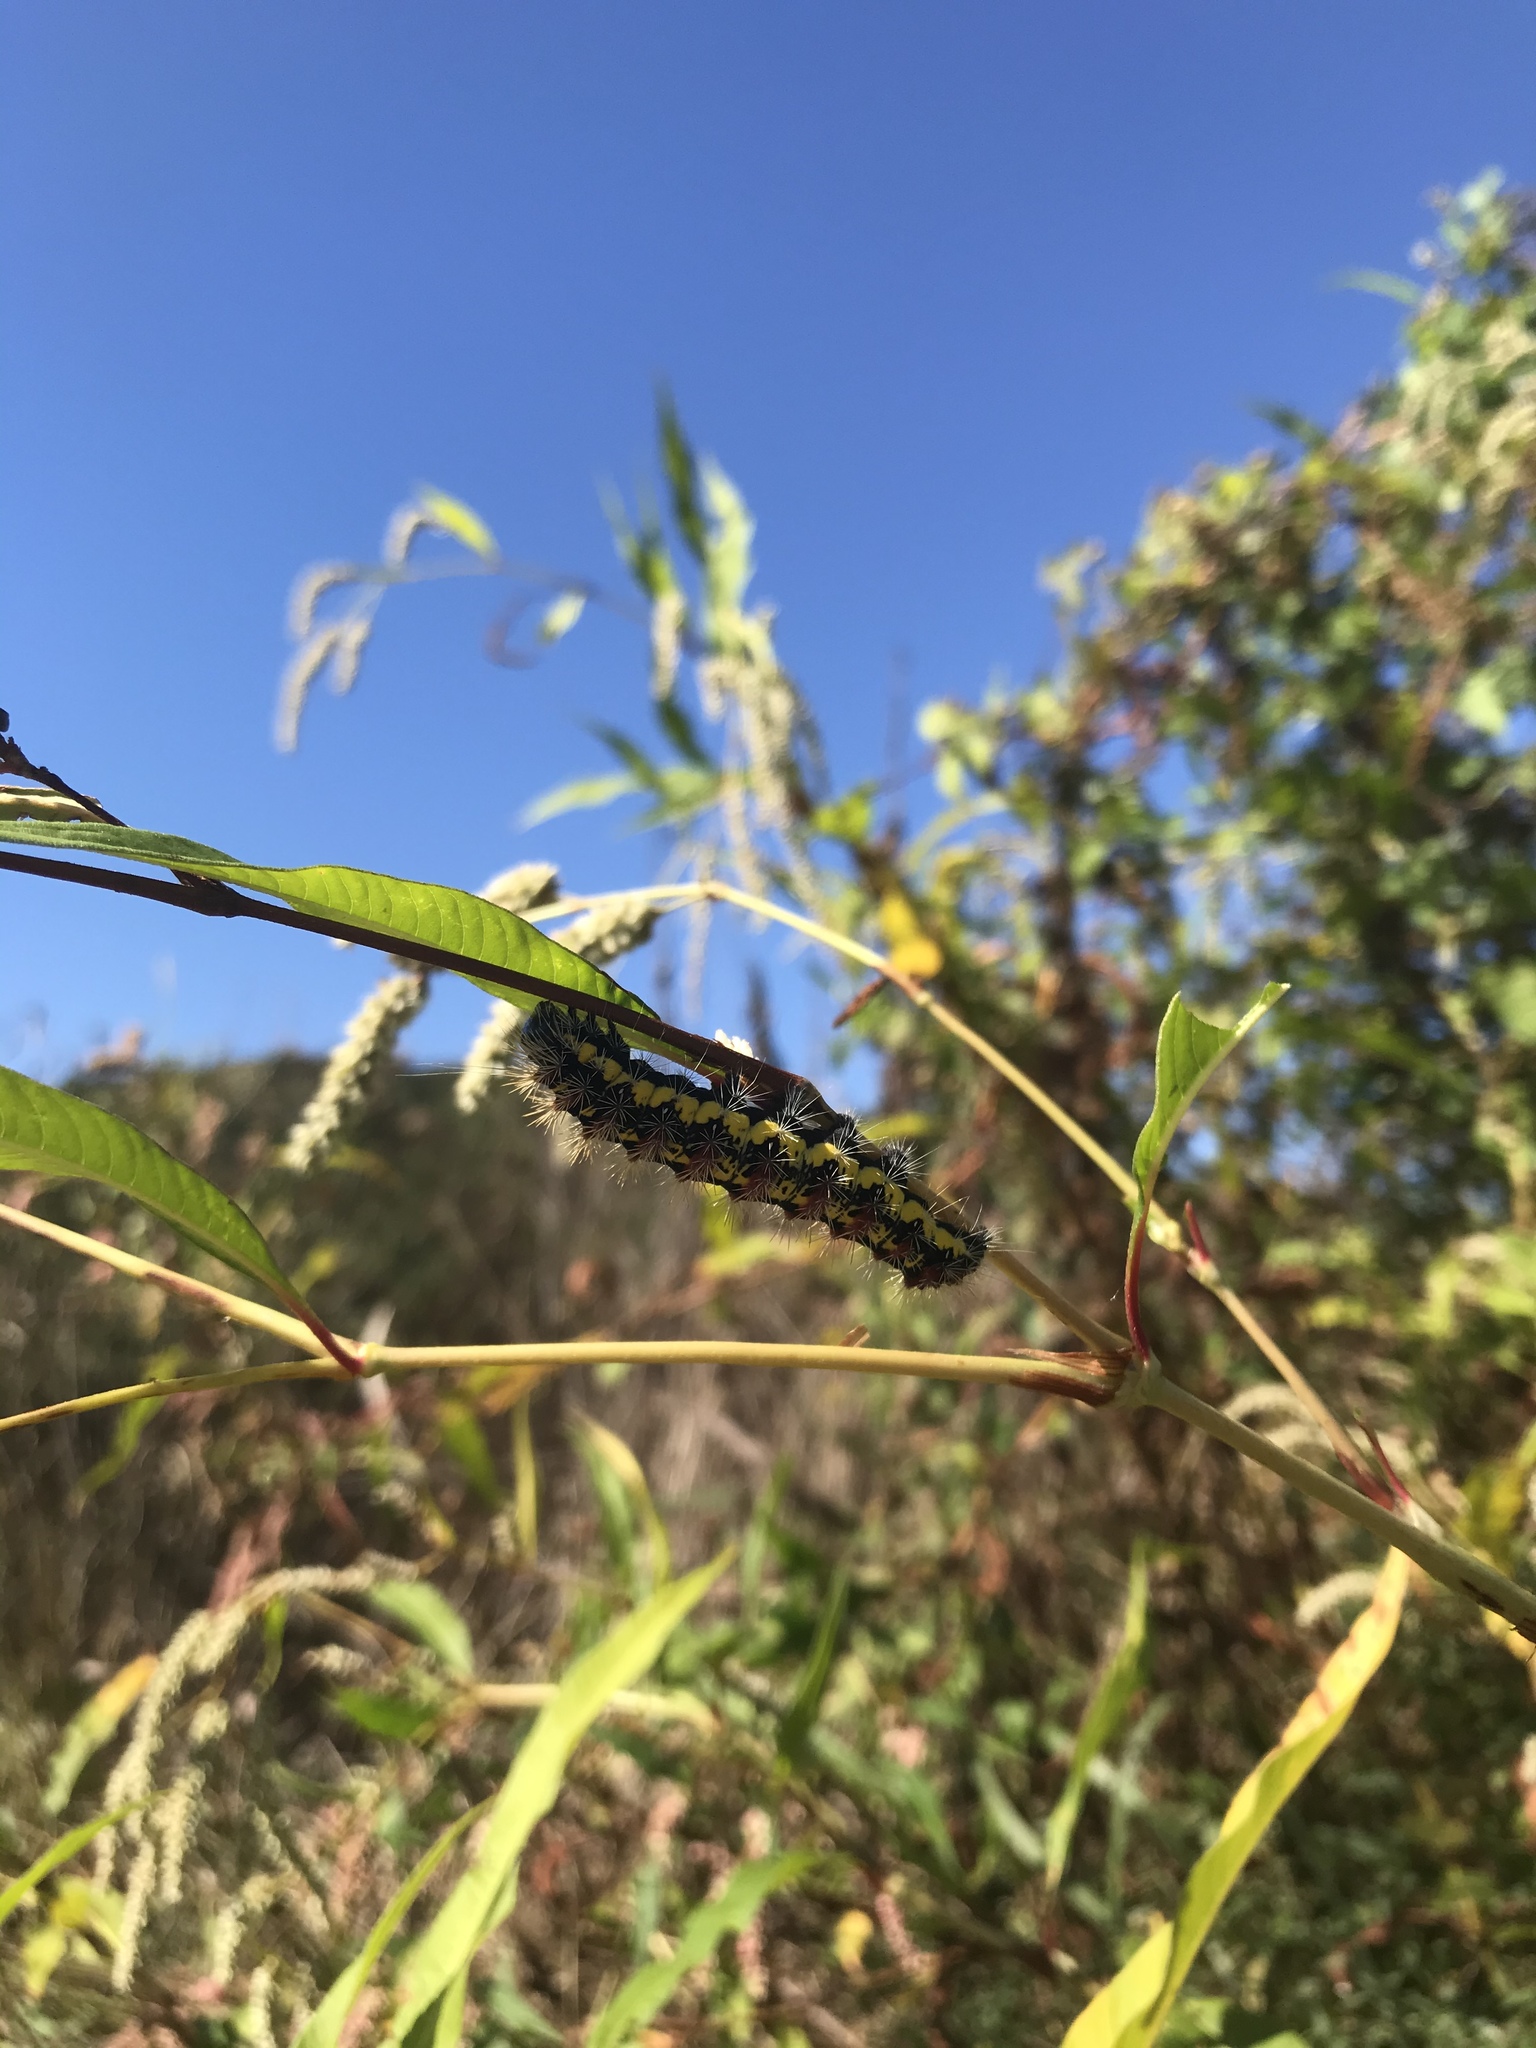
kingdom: Animalia
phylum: Arthropoda
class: Insecta
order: Lepidoptera
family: Noctuidae
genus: Acronicta
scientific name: Acronicta oblinita
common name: Smeared dagger
